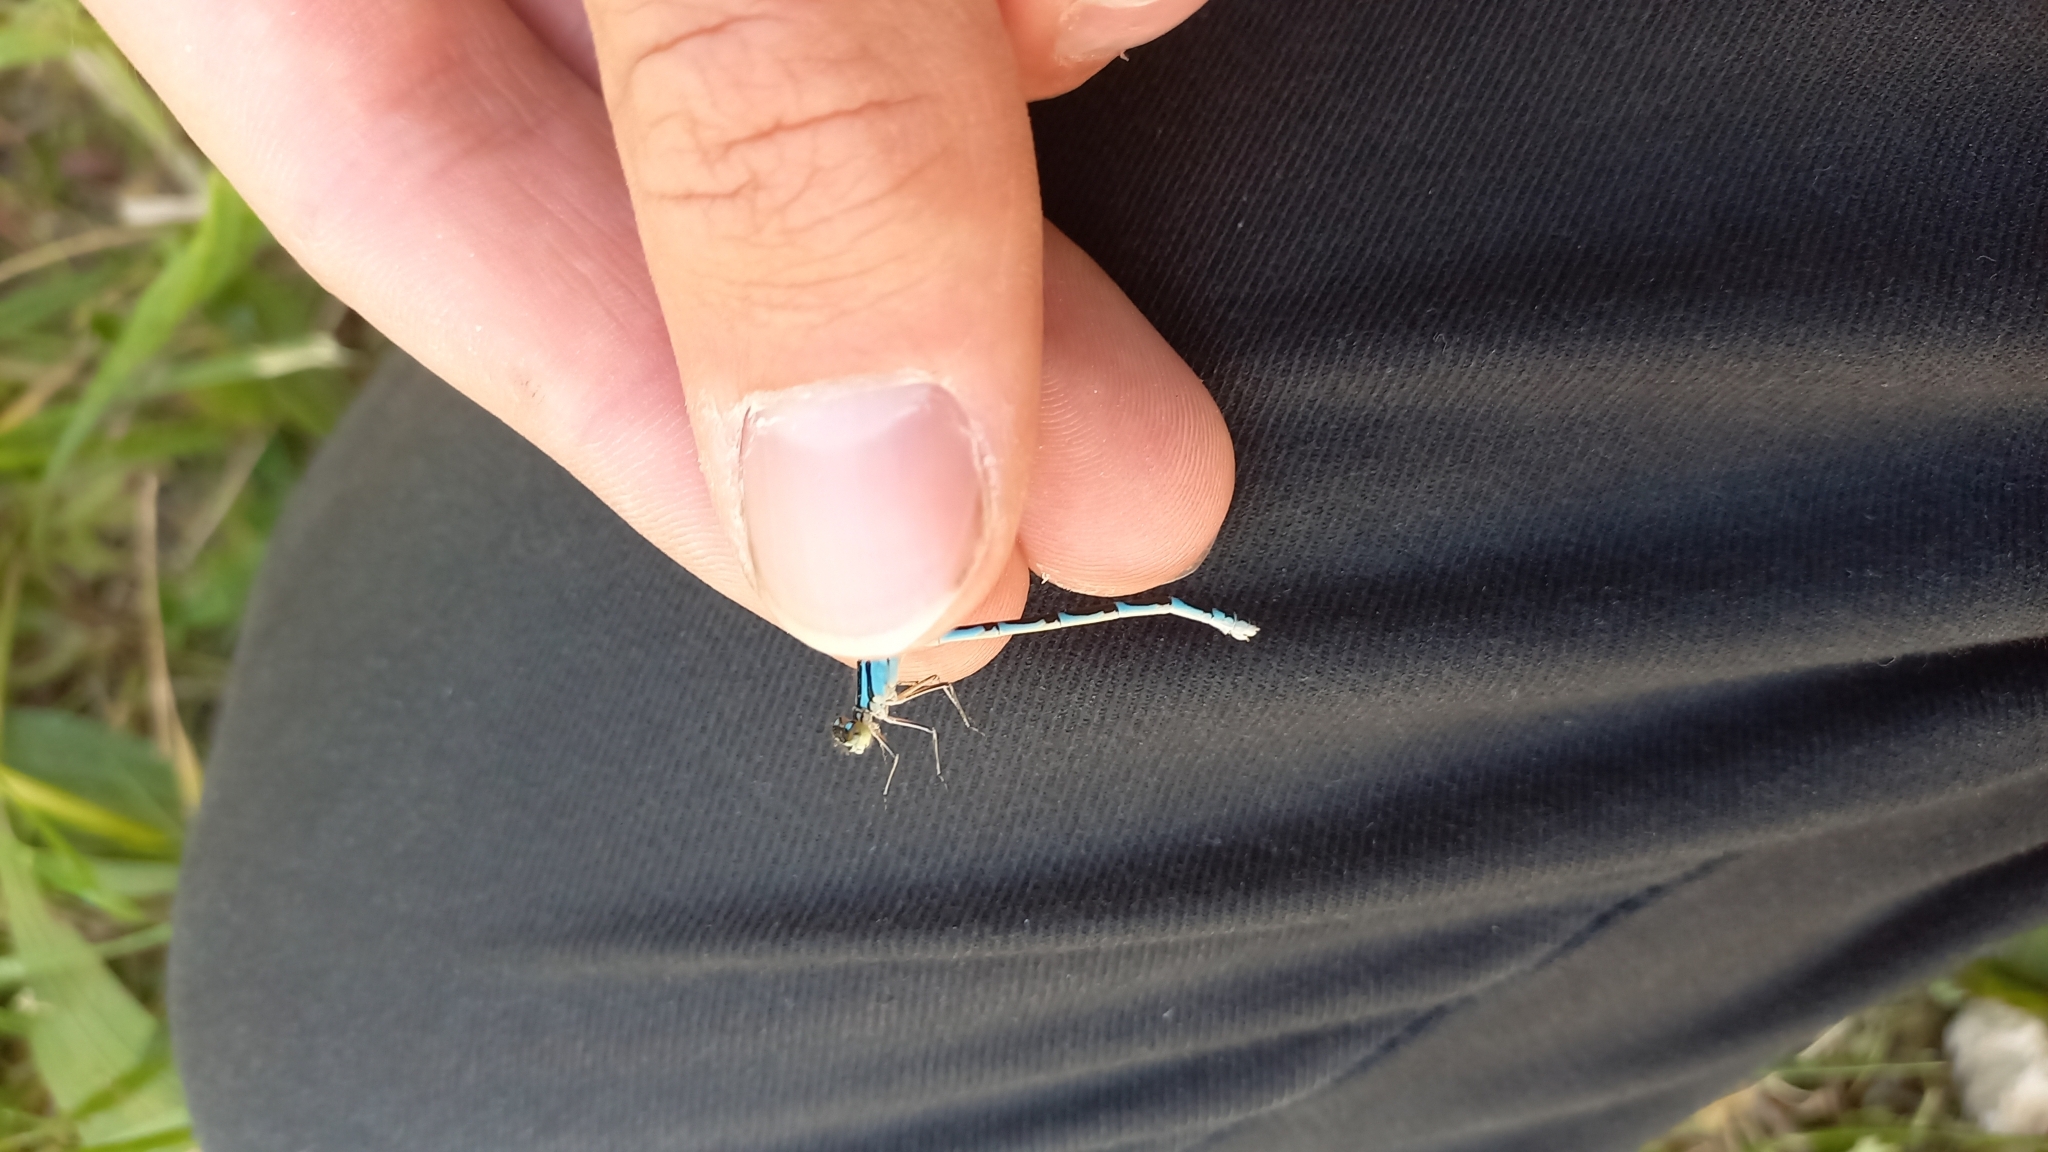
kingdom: Animalia
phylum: Arthropoda
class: Insecta
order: Odonata
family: Coenagrionidae
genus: Enallagma
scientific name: Enallagma cyathigerum
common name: Common blue damselfly
